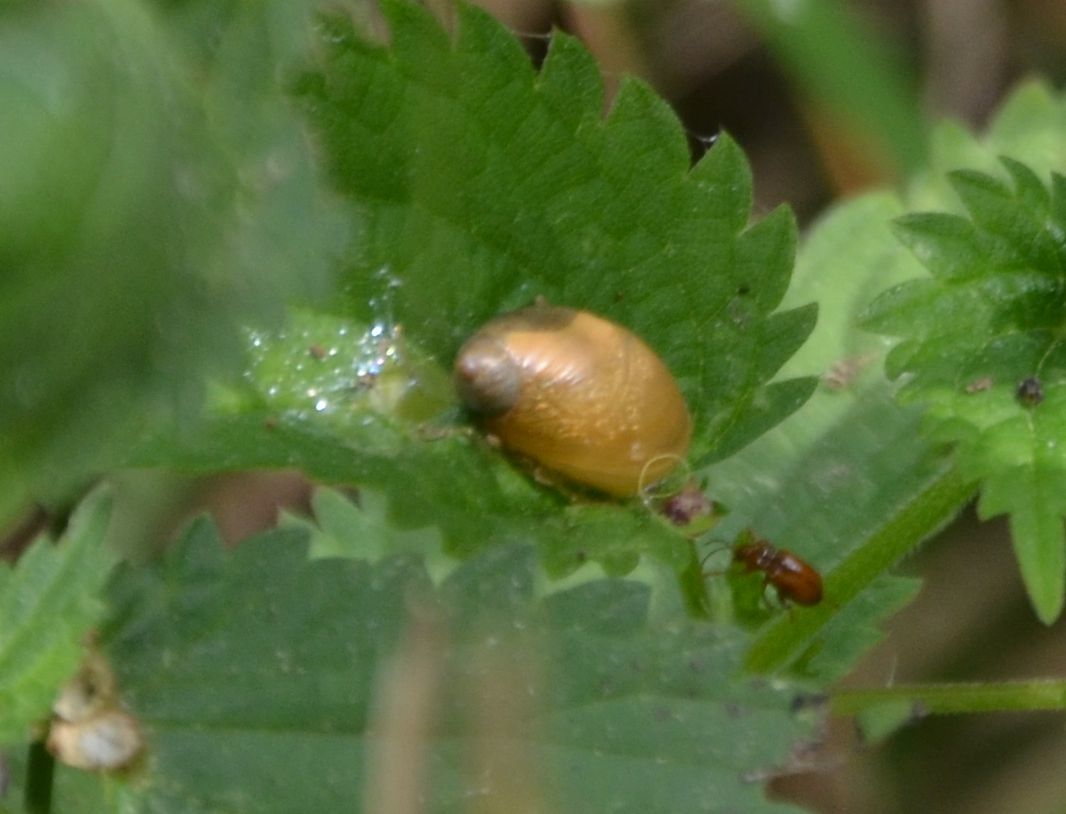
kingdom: Animalia
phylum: Mollusca
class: Gastropoda
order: Stylommatophora
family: Succineidae
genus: Succinea
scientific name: Succinea putris
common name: European ambersnail
